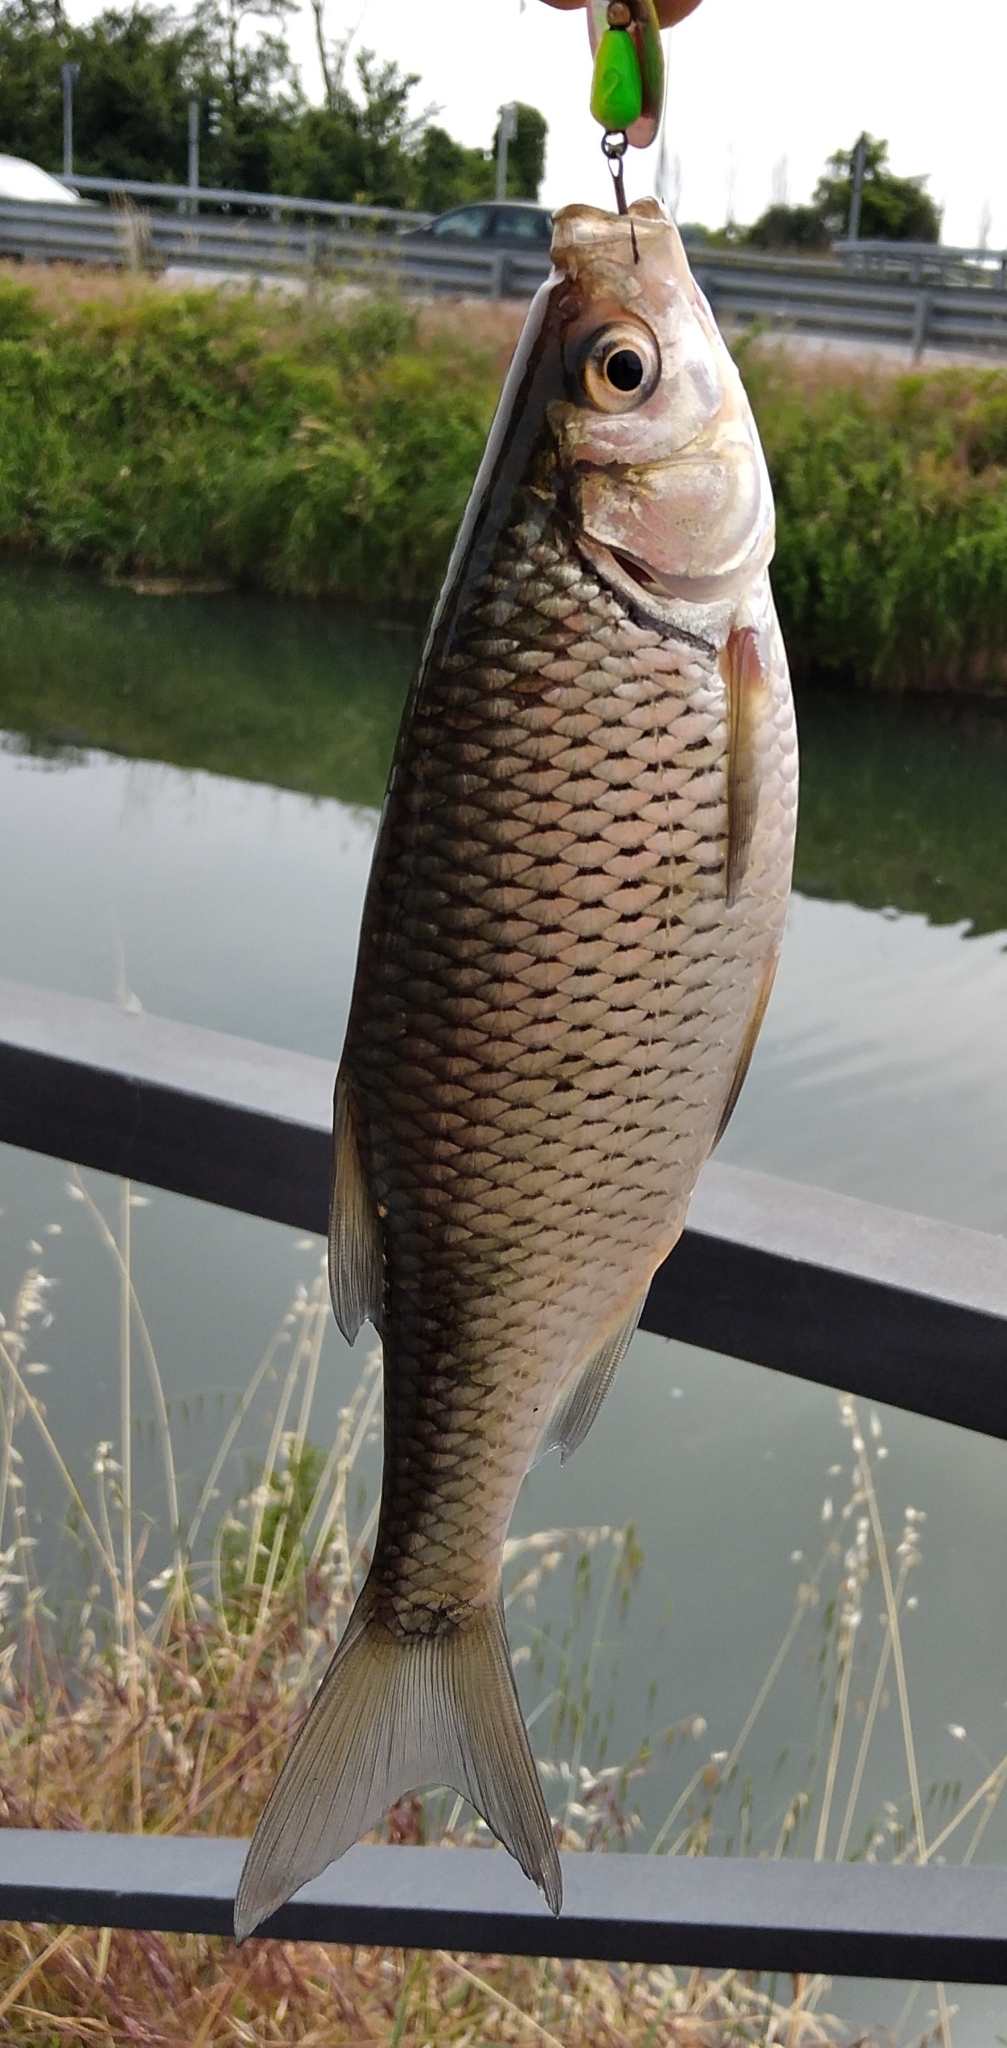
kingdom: Animalia
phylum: Chordata
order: Cypriniformes
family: Cyprinidae
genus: Scardinius
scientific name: Scardinius hesperidicus
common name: Italian rudd
